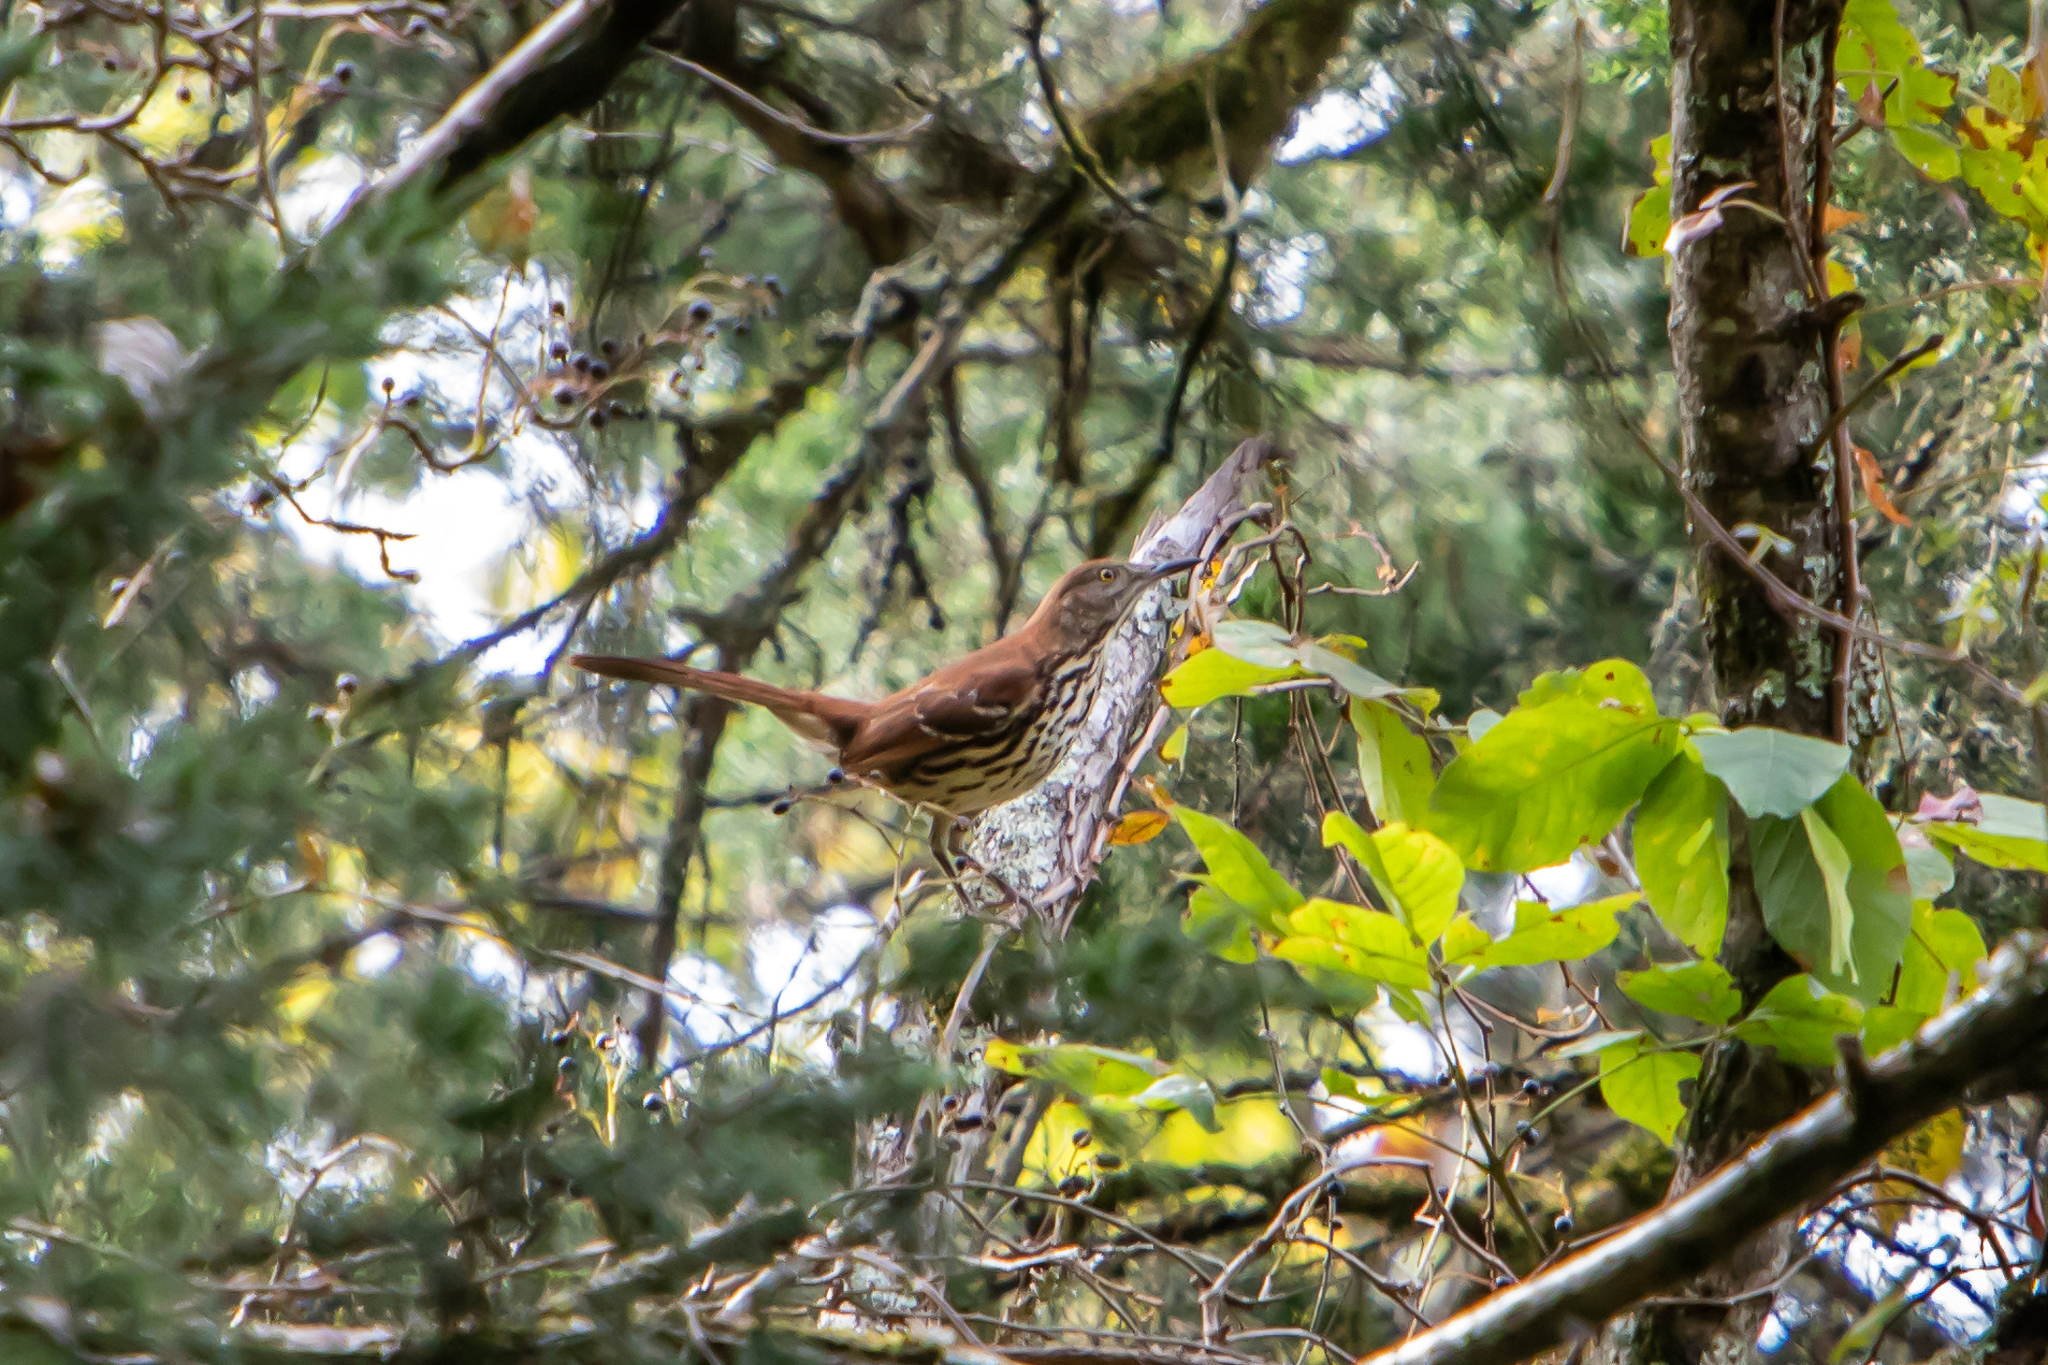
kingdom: Animalia
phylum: Chordata
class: Aves
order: Passeriformes
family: Mimidae
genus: Toxostoma
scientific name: Toxostoma rufum
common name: Brown thrasher
